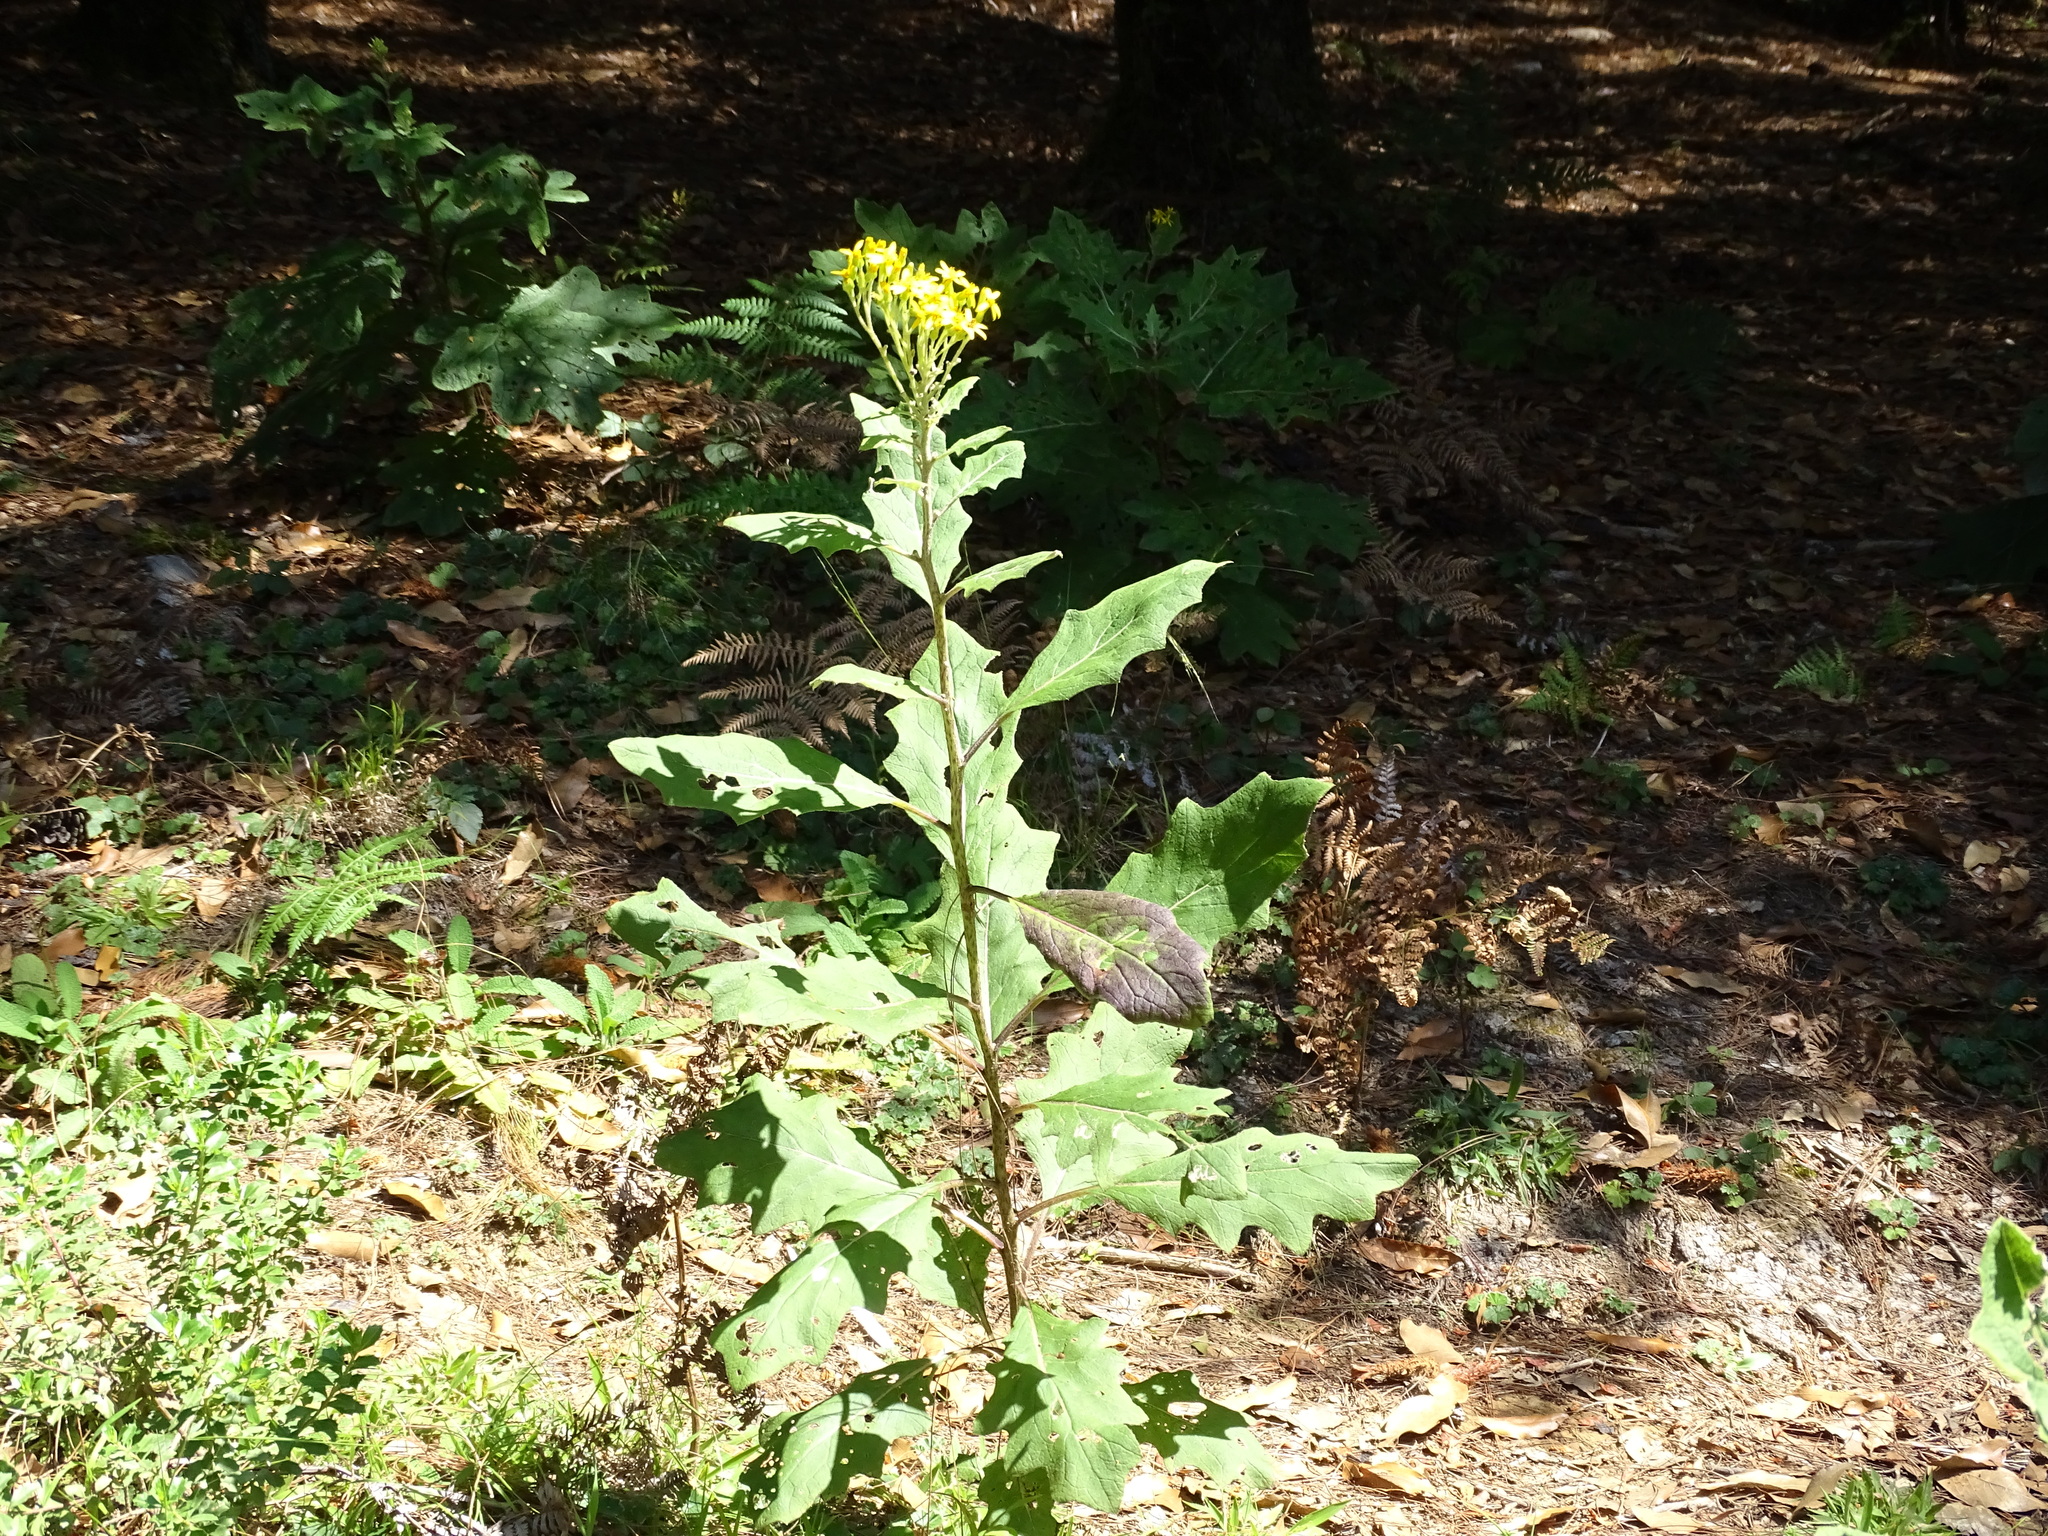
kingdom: Plantae
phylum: Tracheophyta
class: Magnoliopsida
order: Asterales
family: Asteraceae
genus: Roldana
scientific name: Roldana candicans
